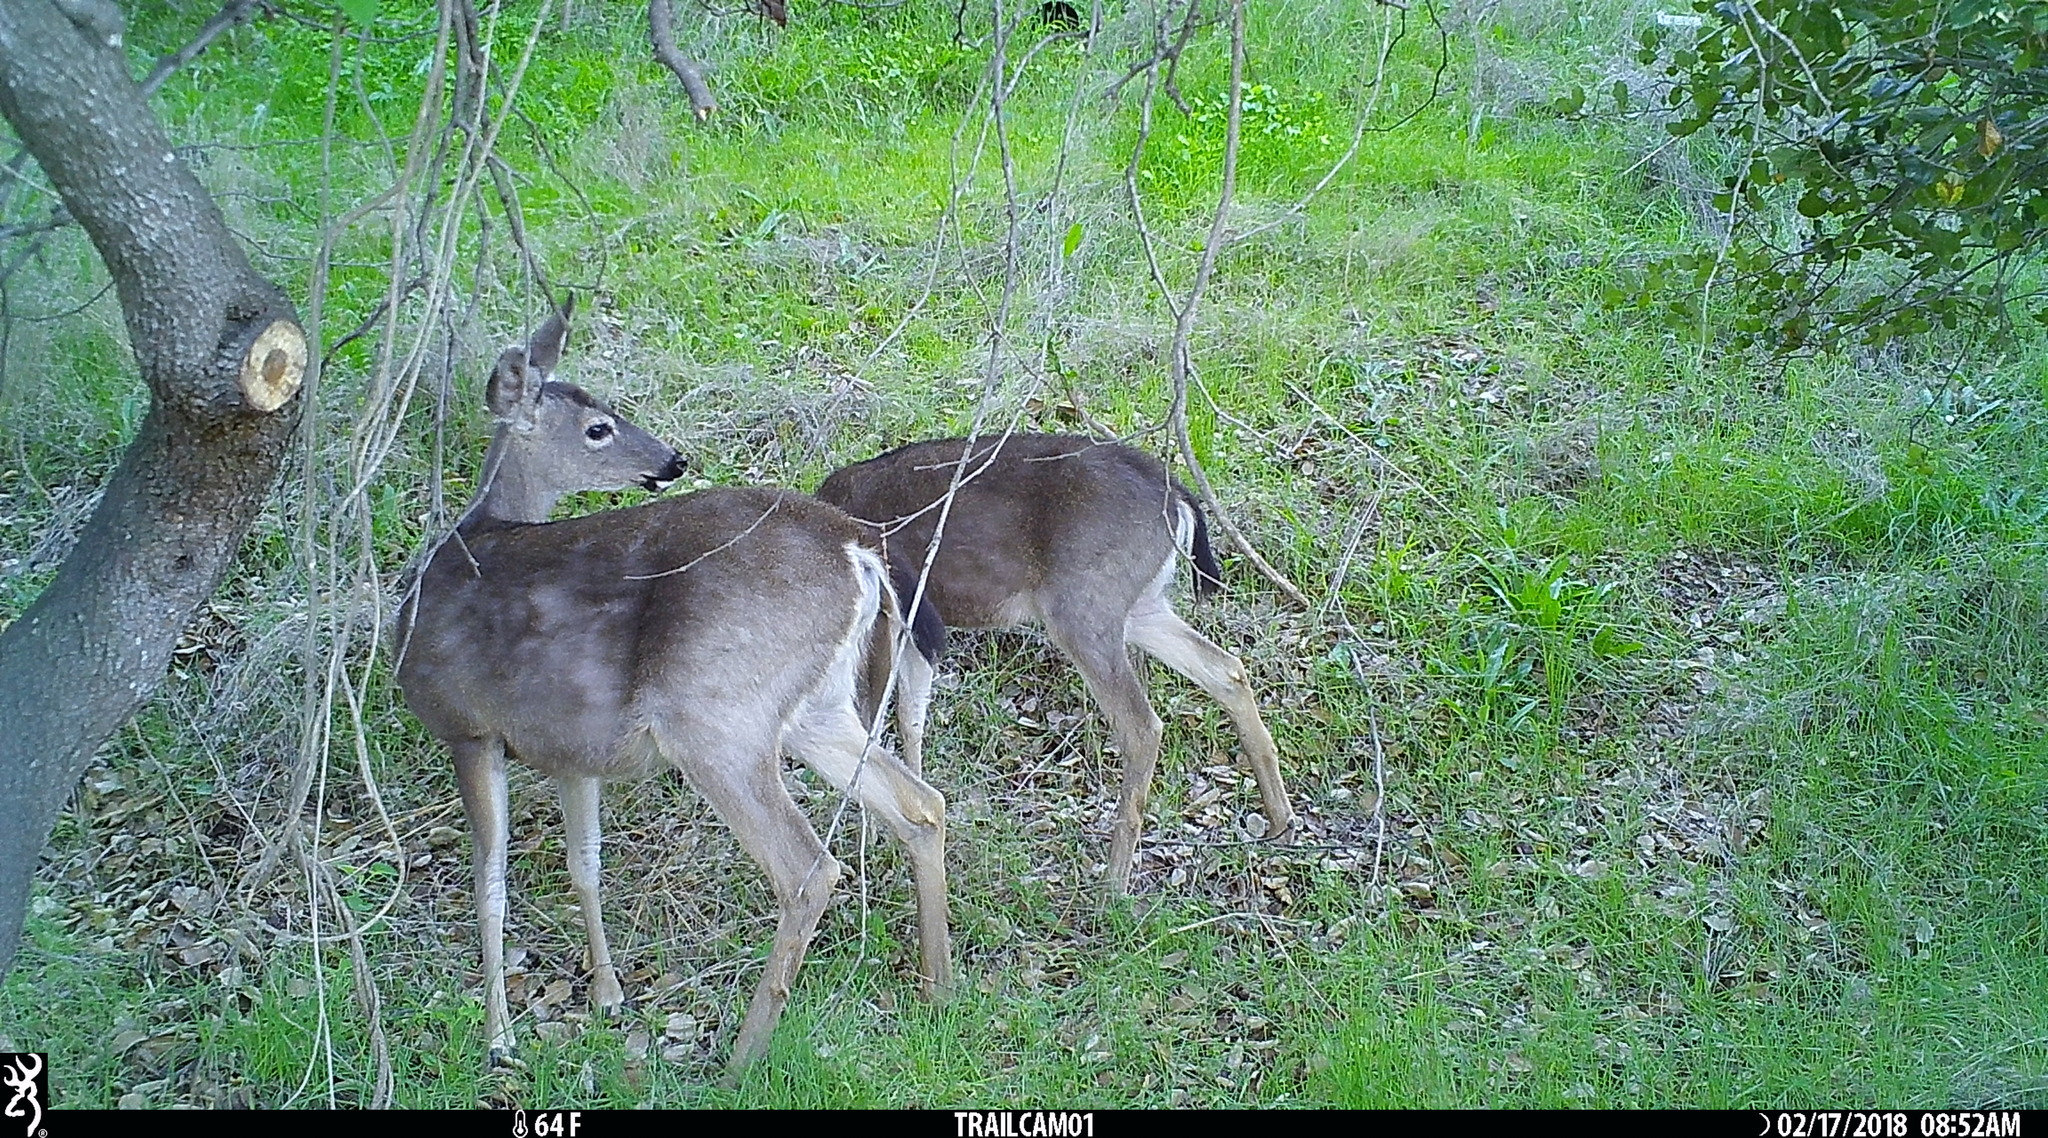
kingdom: Animalia
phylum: Chordata
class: Mammalia
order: Artiodactyla
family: Cervidae
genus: Odocoileus
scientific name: Odocoileus hemionus
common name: Mule deer
